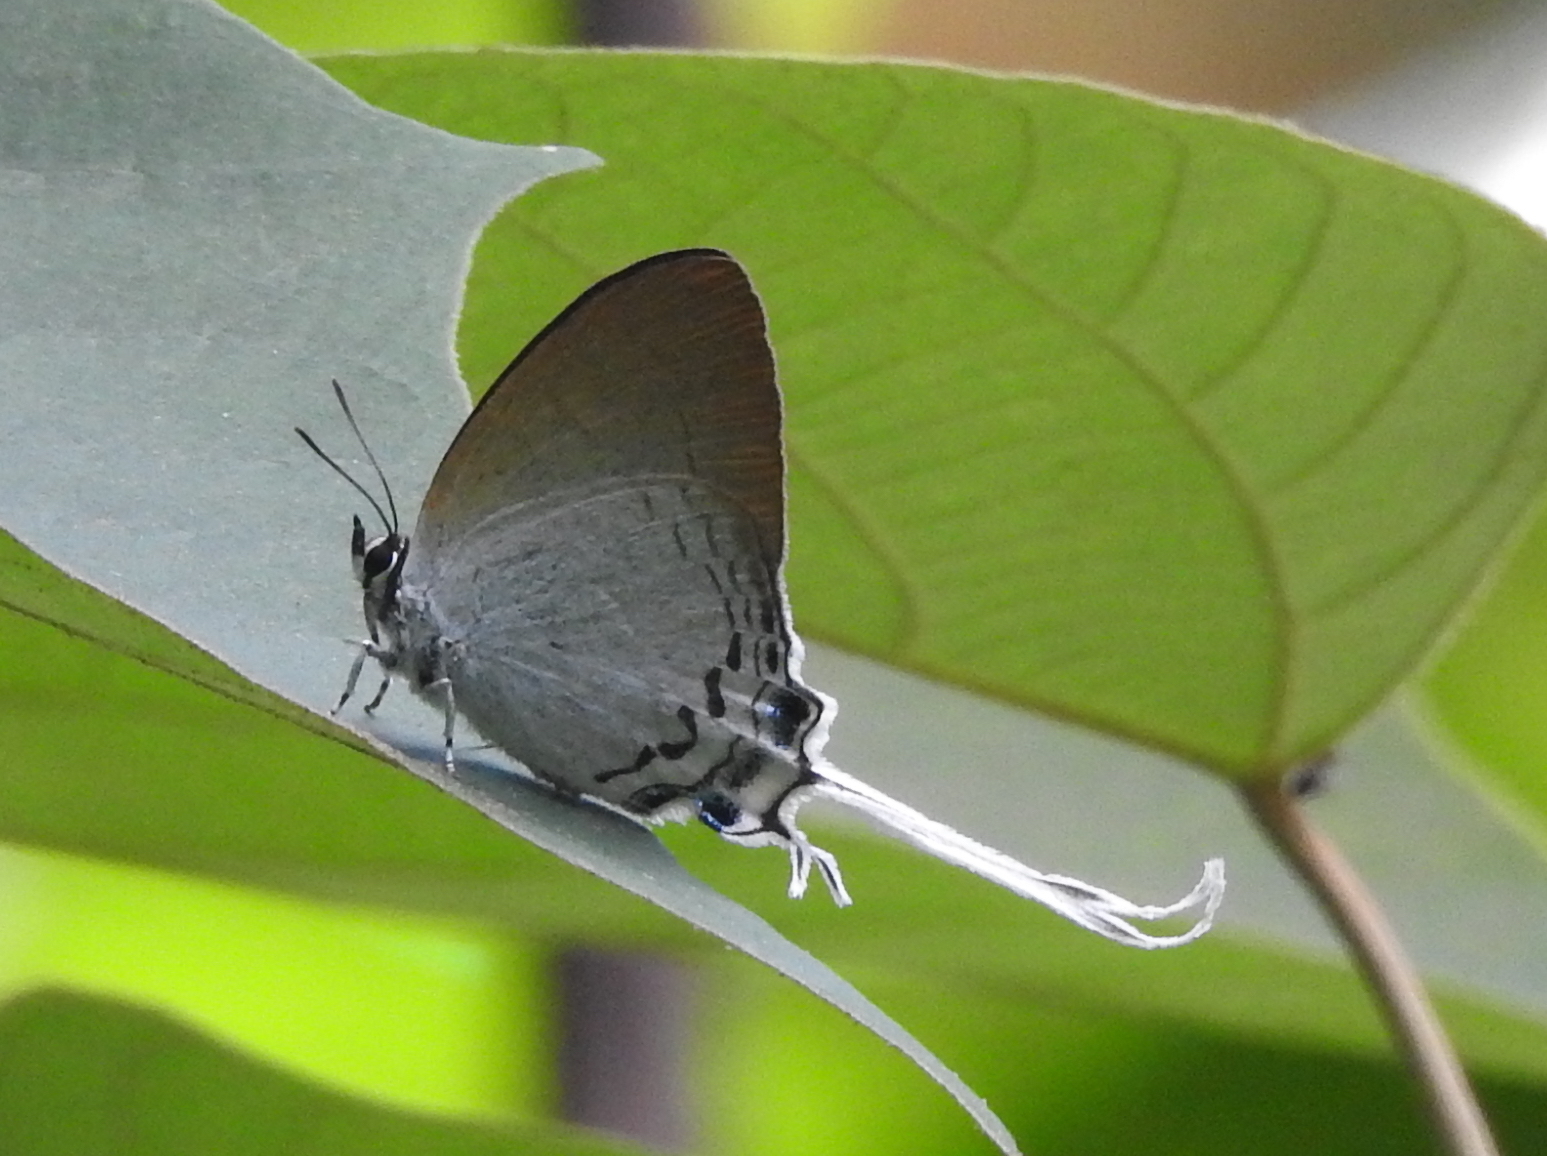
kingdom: Animalia
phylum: Arthropoda
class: Insecta
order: Lepidoptera
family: Lycaenidae
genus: Cheritra
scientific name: Cheritra freja
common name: Common imperial
